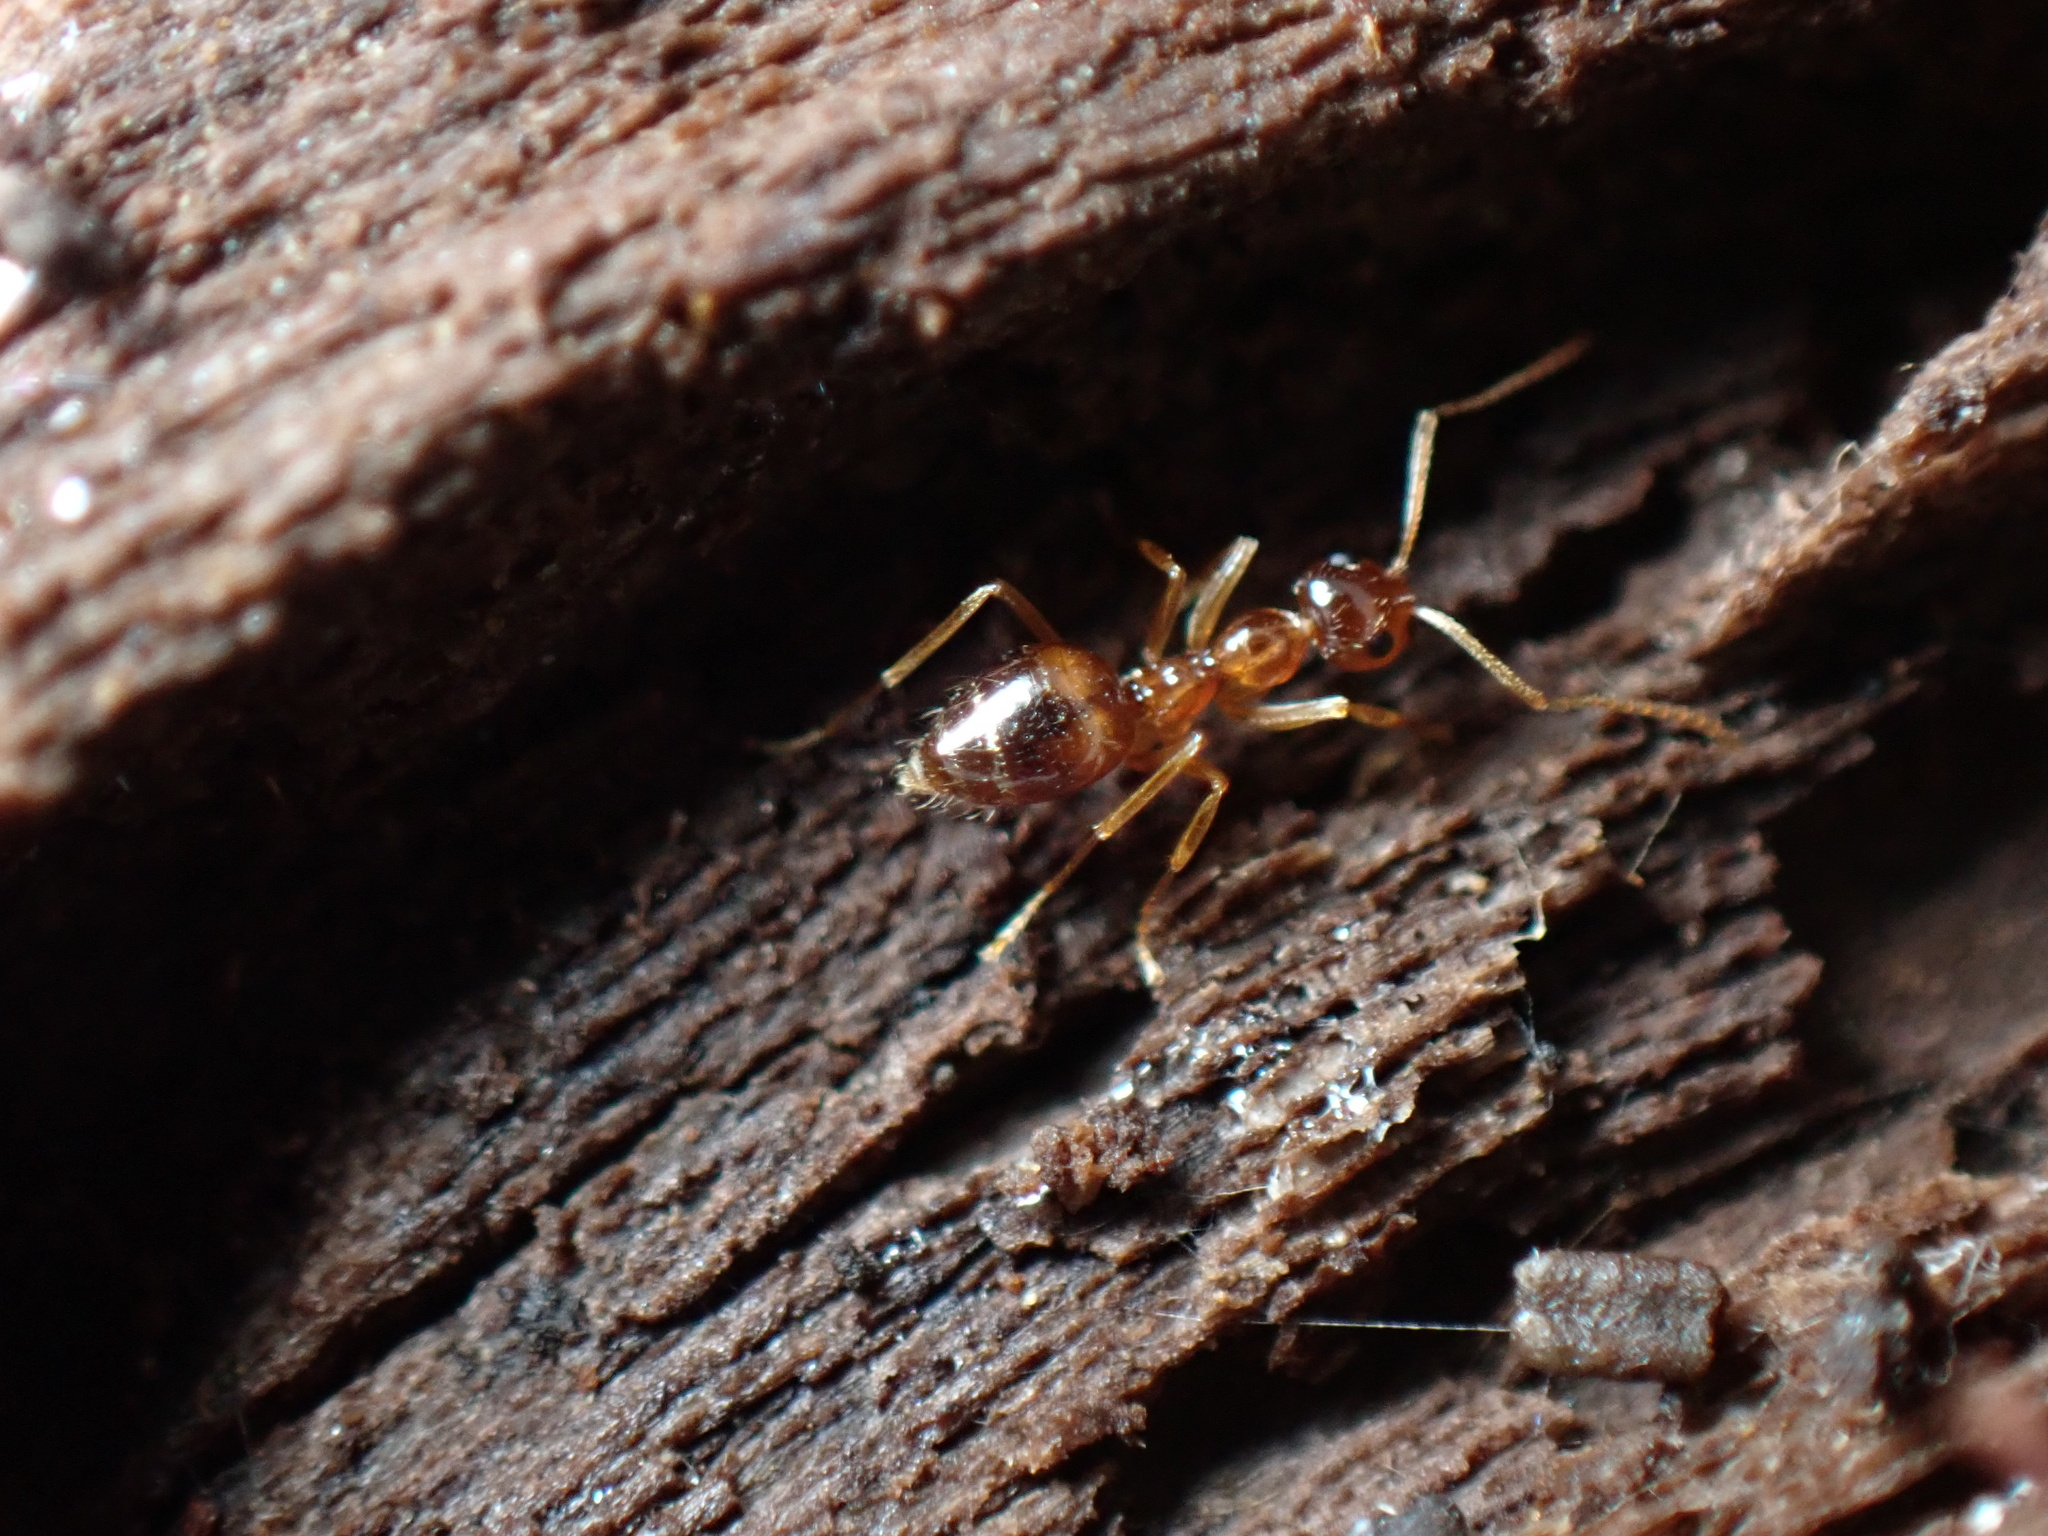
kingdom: Animalia
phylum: Arthropoda
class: Insecta
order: Hymenoptera
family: Formicidae
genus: Prenolepis
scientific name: Prenolepis imparis
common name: Small honey ant
